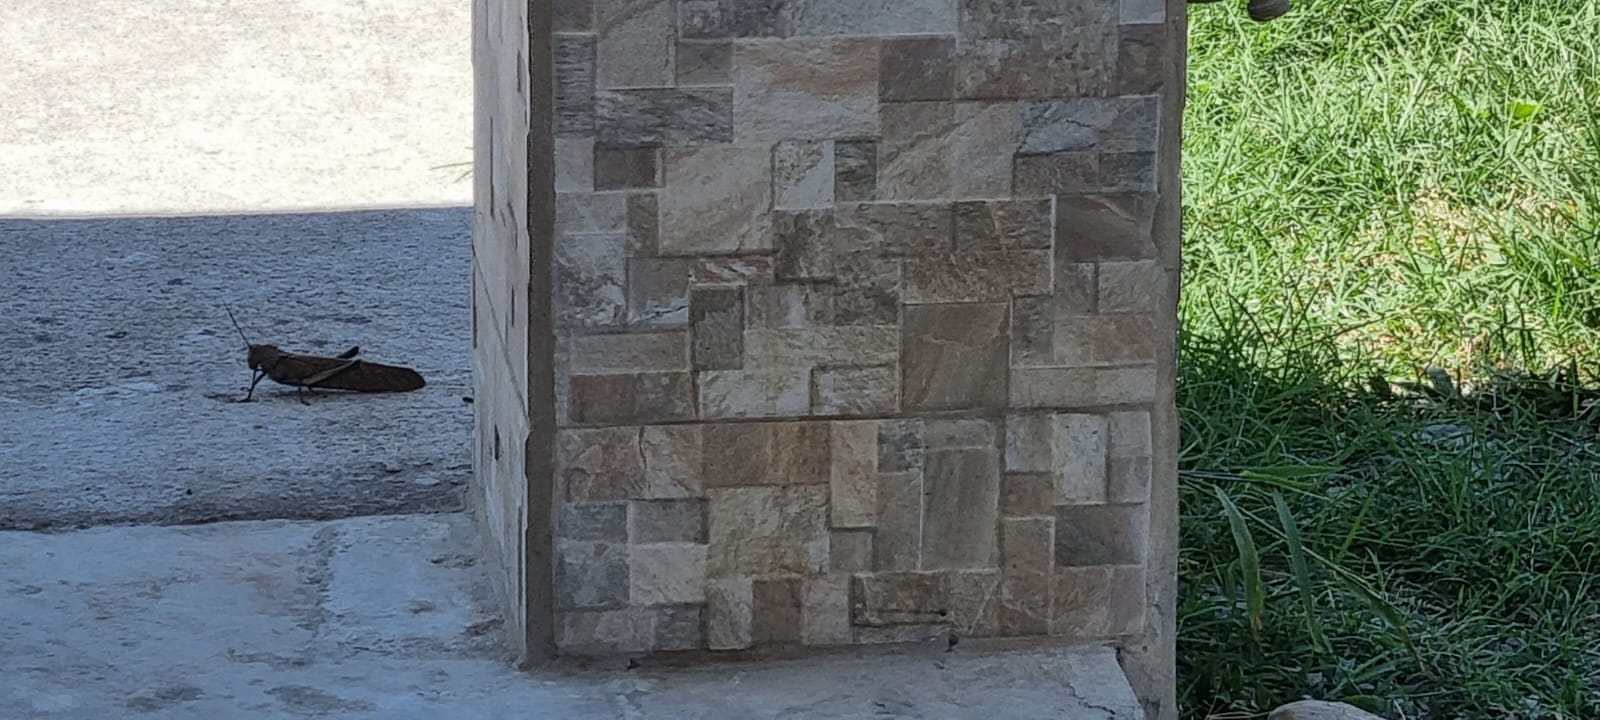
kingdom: Animalia
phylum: Arthropoda
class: Insecta
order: Orthoptera
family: Romaleidae
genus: Tropidacris
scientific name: Tropidacris cristata
